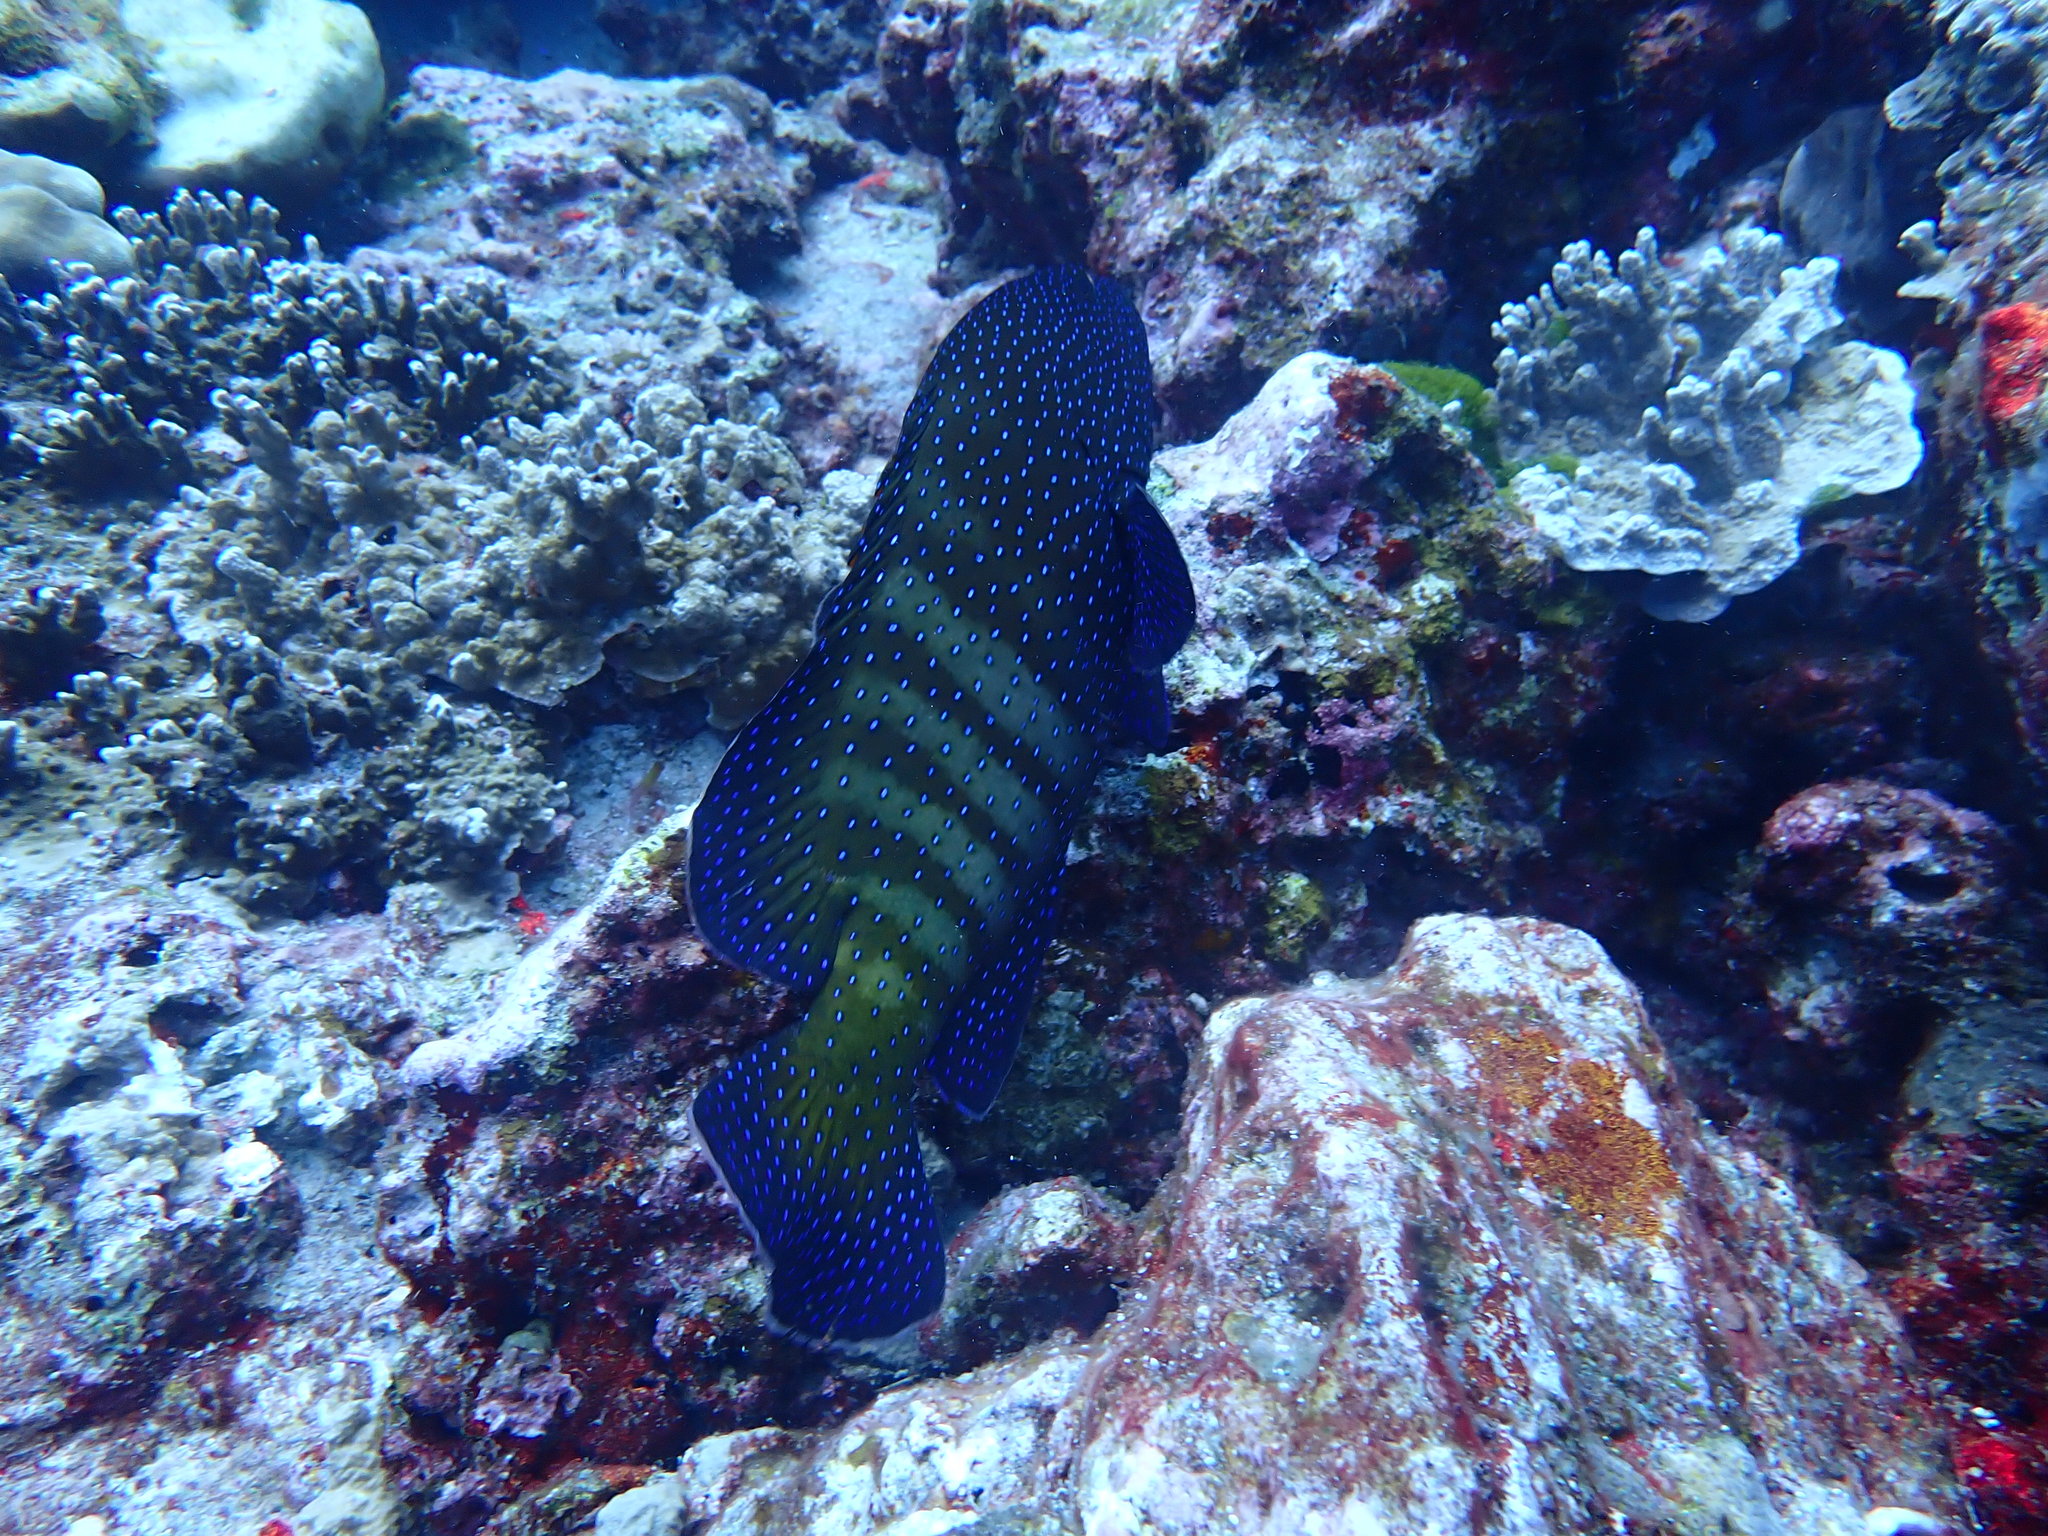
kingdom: Animalia
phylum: Chordata
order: Perciformes
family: Serranidae
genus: Cephalopholis
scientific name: Cephalopholis argus
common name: Peacock grouper
